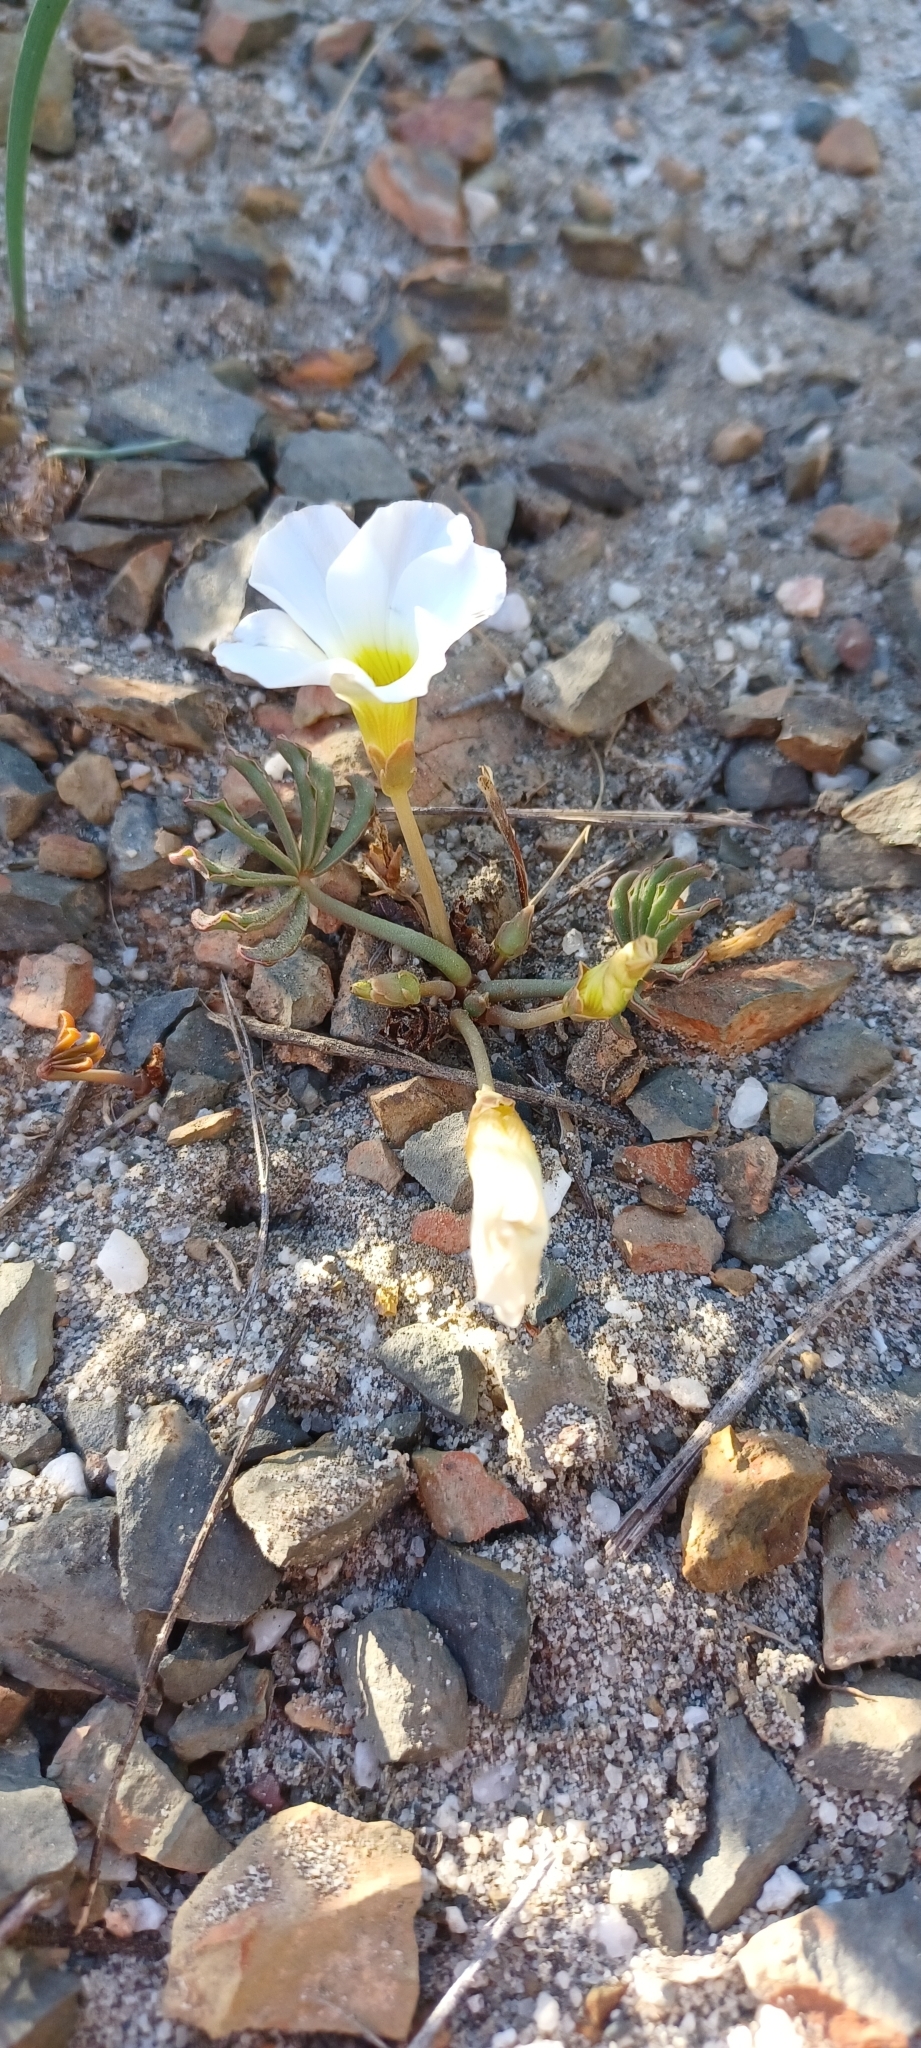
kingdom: Plantae
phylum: Tracheophyta
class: Magnoliopsida
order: Oxalidales
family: Oxalidaceae
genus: Oxalis
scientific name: Oxalis flava
